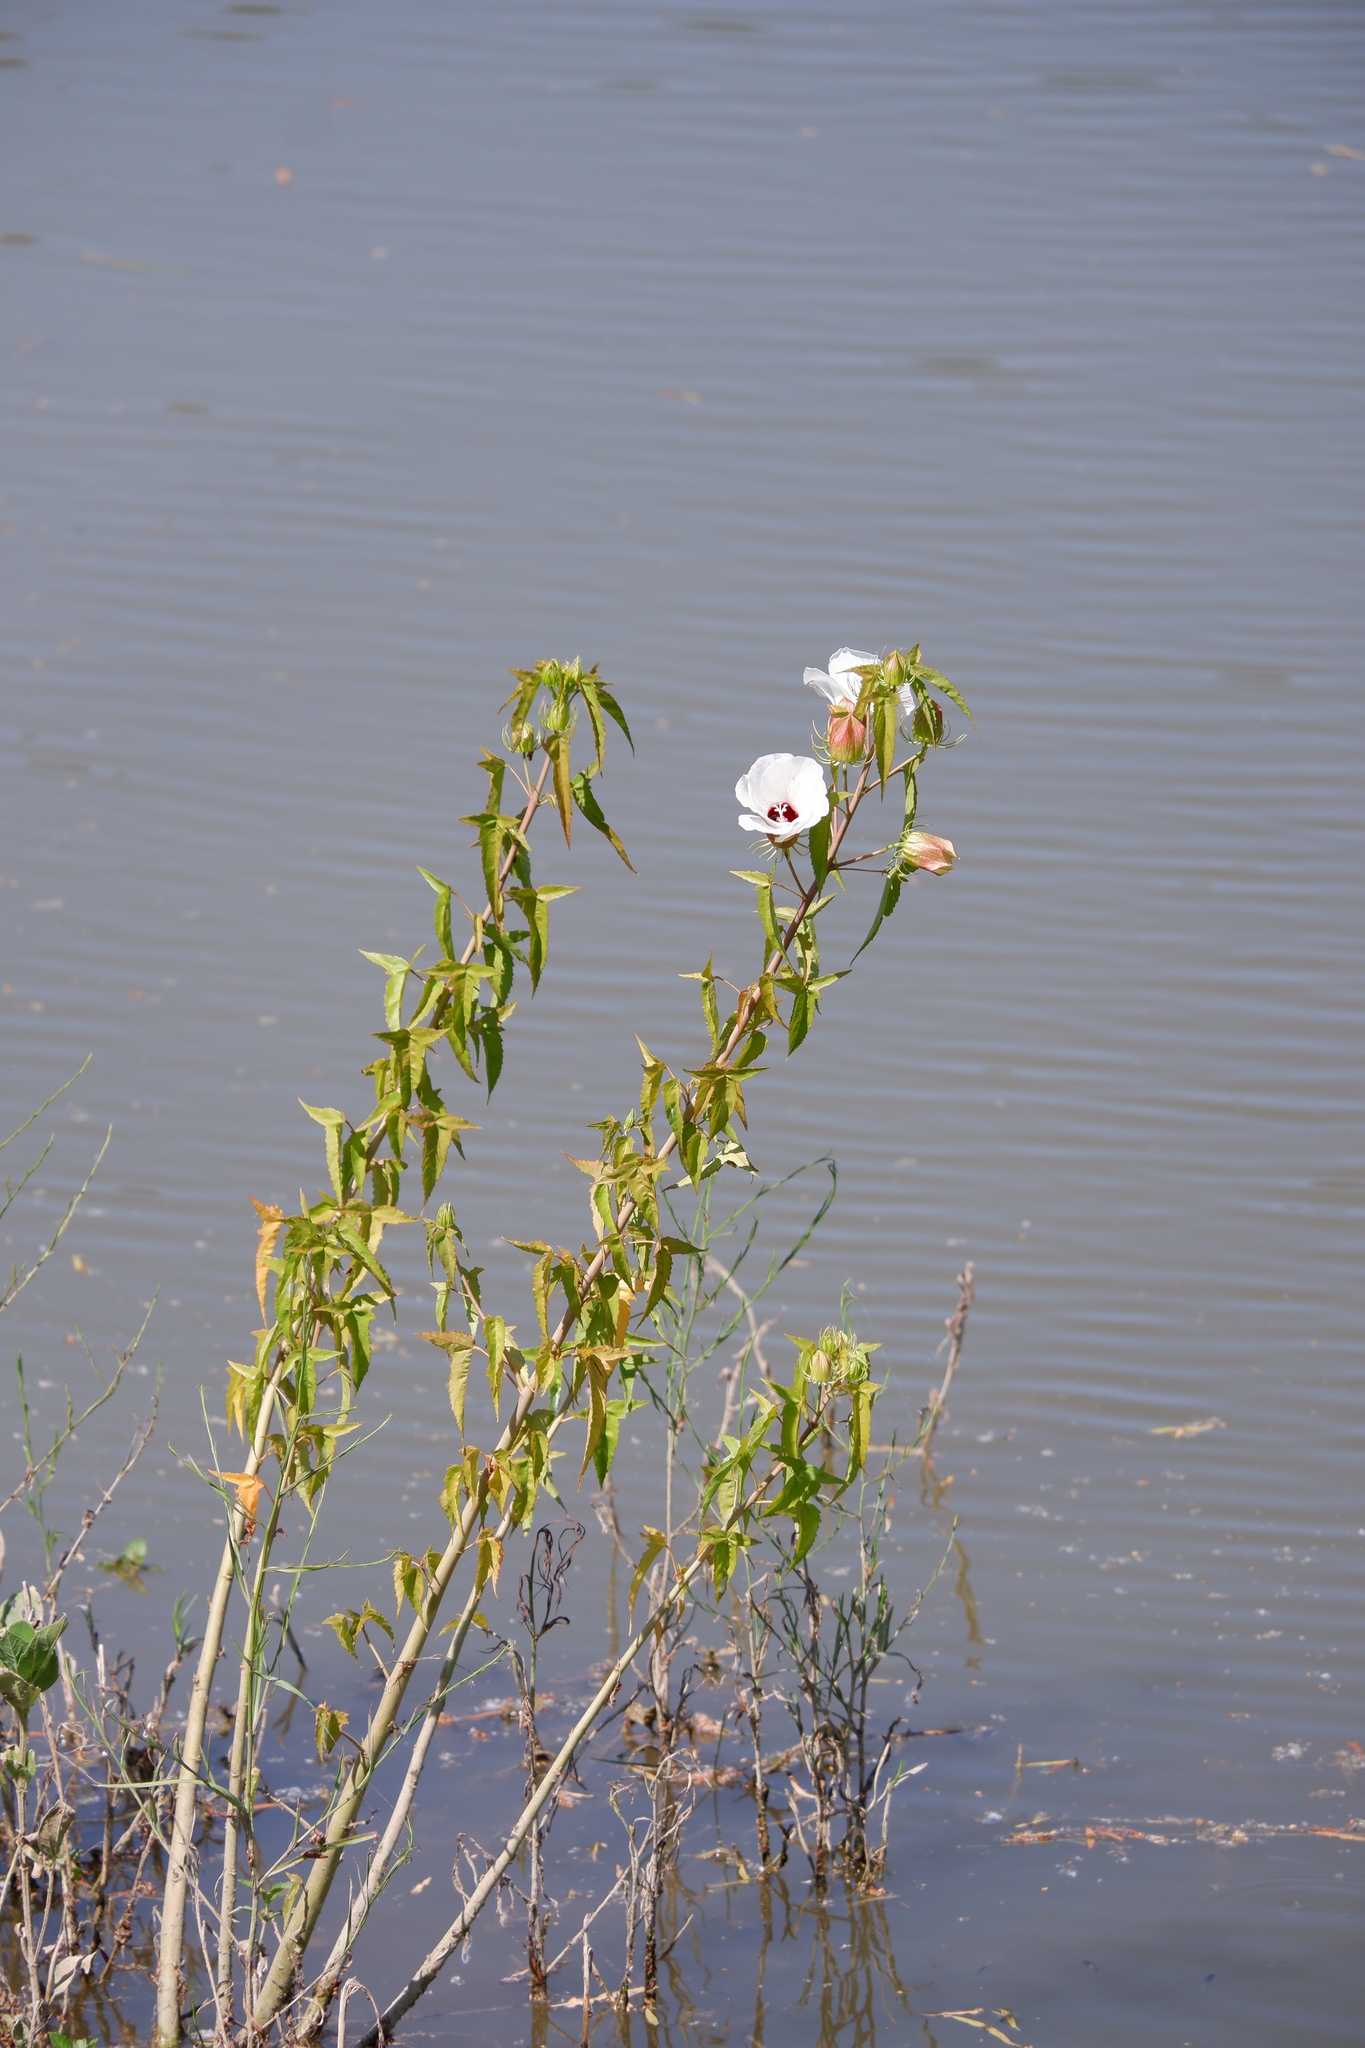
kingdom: Plantae
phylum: Tracheophyta
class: Magnoliopsida
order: Malvales
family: Malvaceae
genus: Hibiscus
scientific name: Hibiscus laevis
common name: Scarlet rose-mallow
